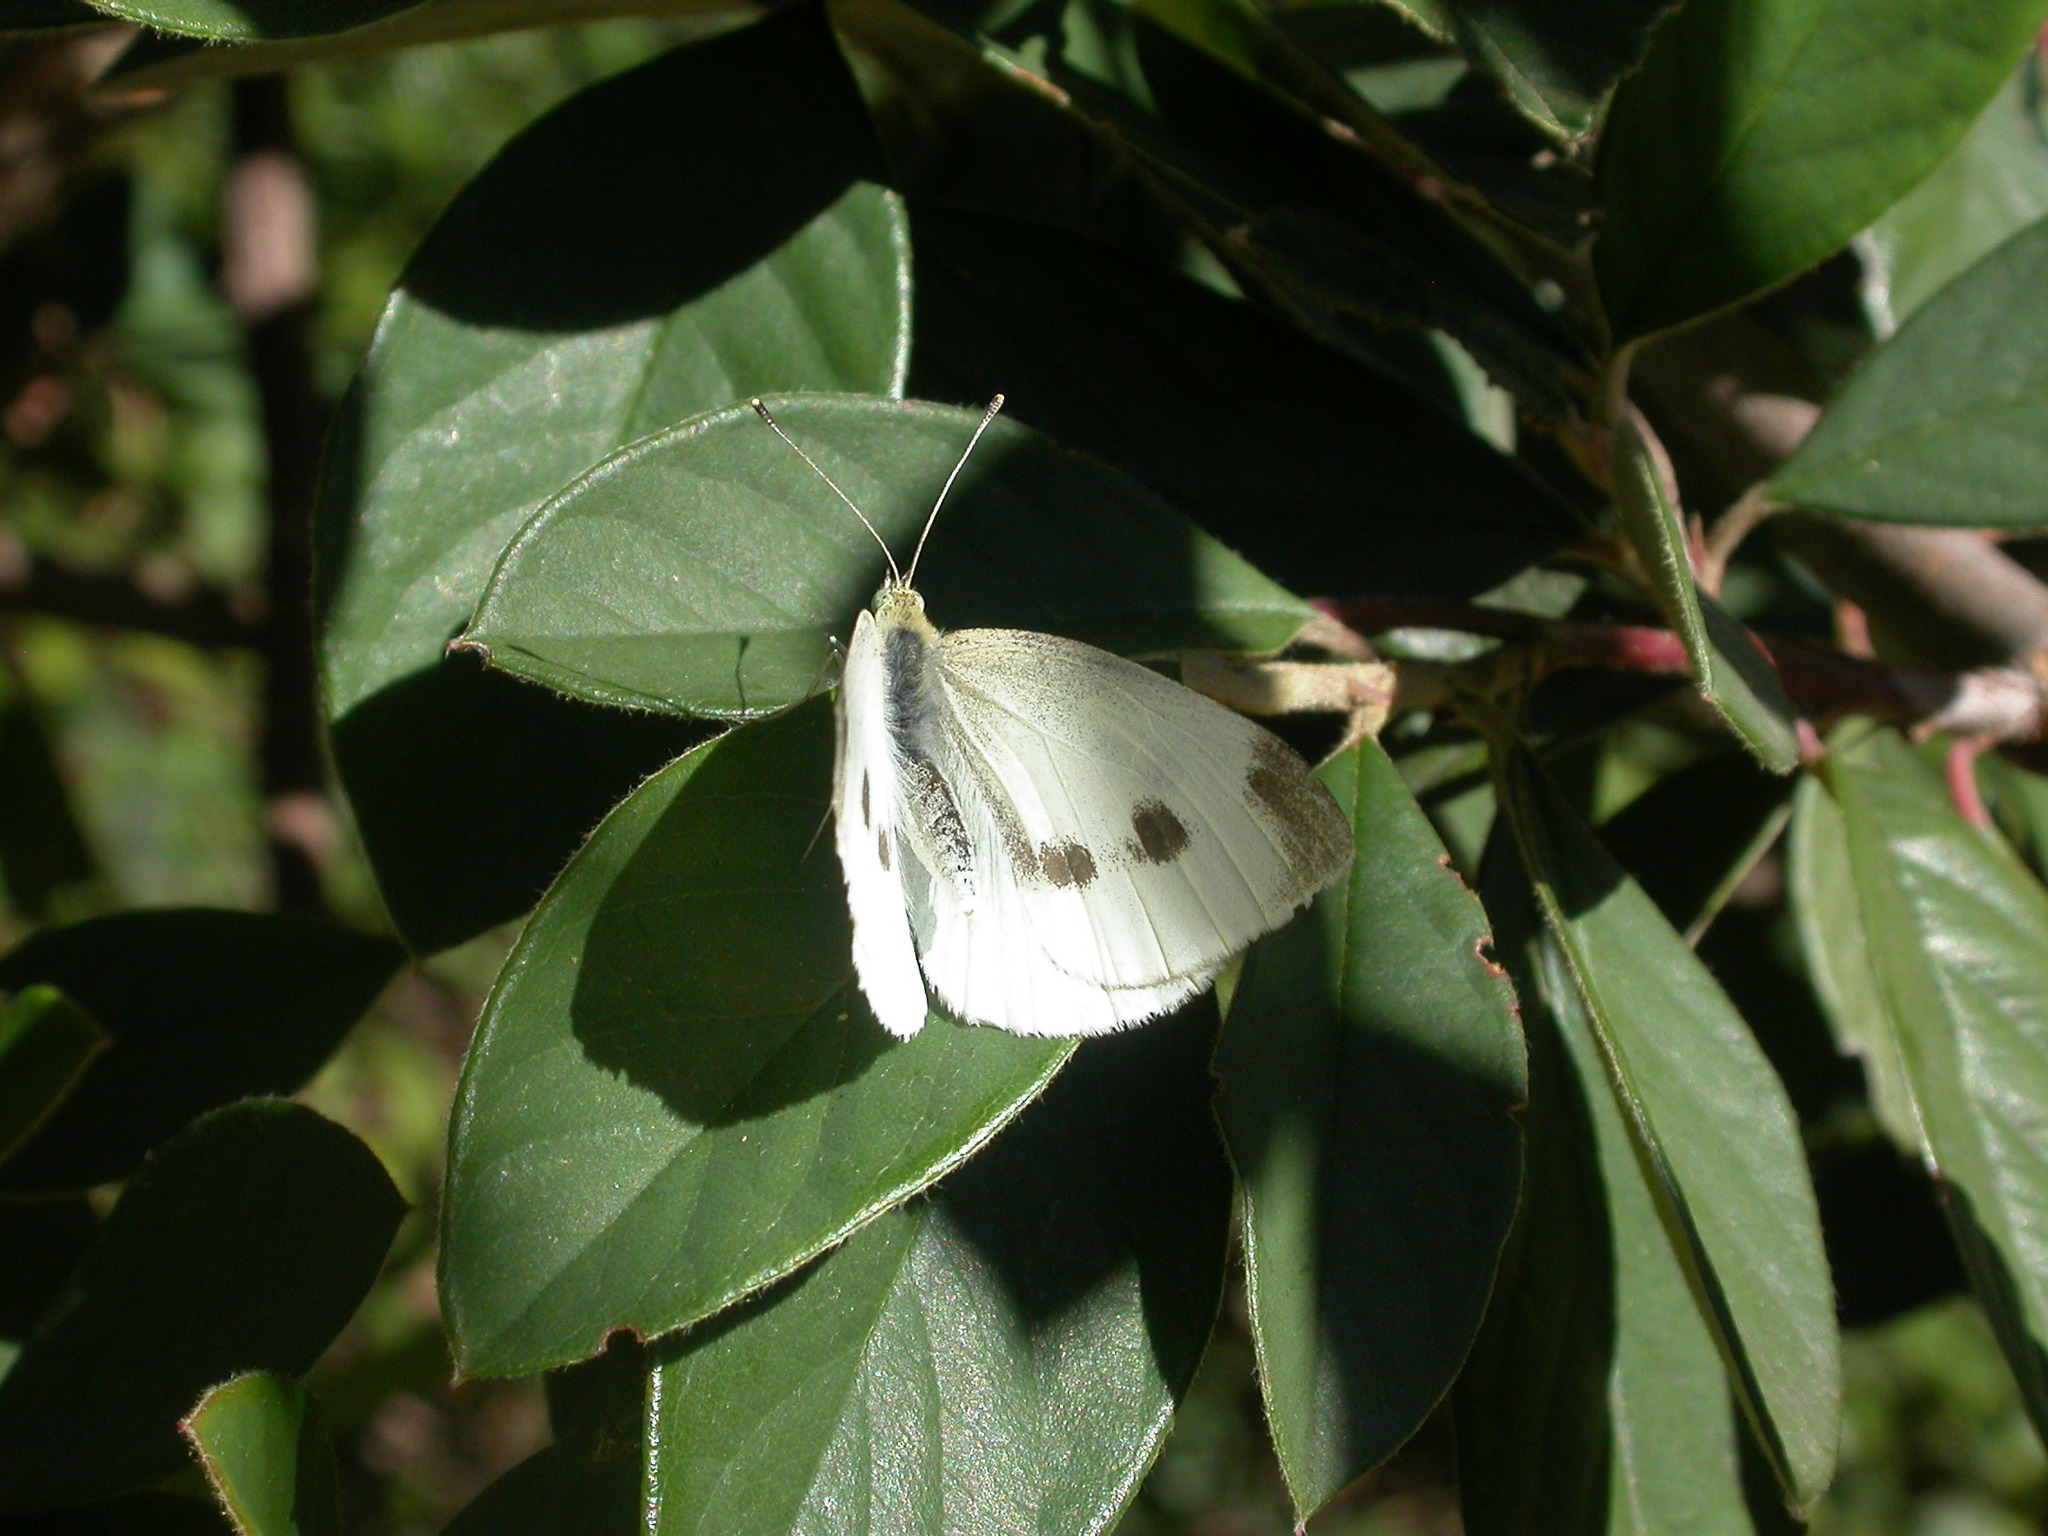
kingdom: Animalia
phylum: Arthropoda
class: Insecta
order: Lepidoptera
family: Pieridae
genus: Pieris
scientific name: Pieris rapae
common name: Small white
